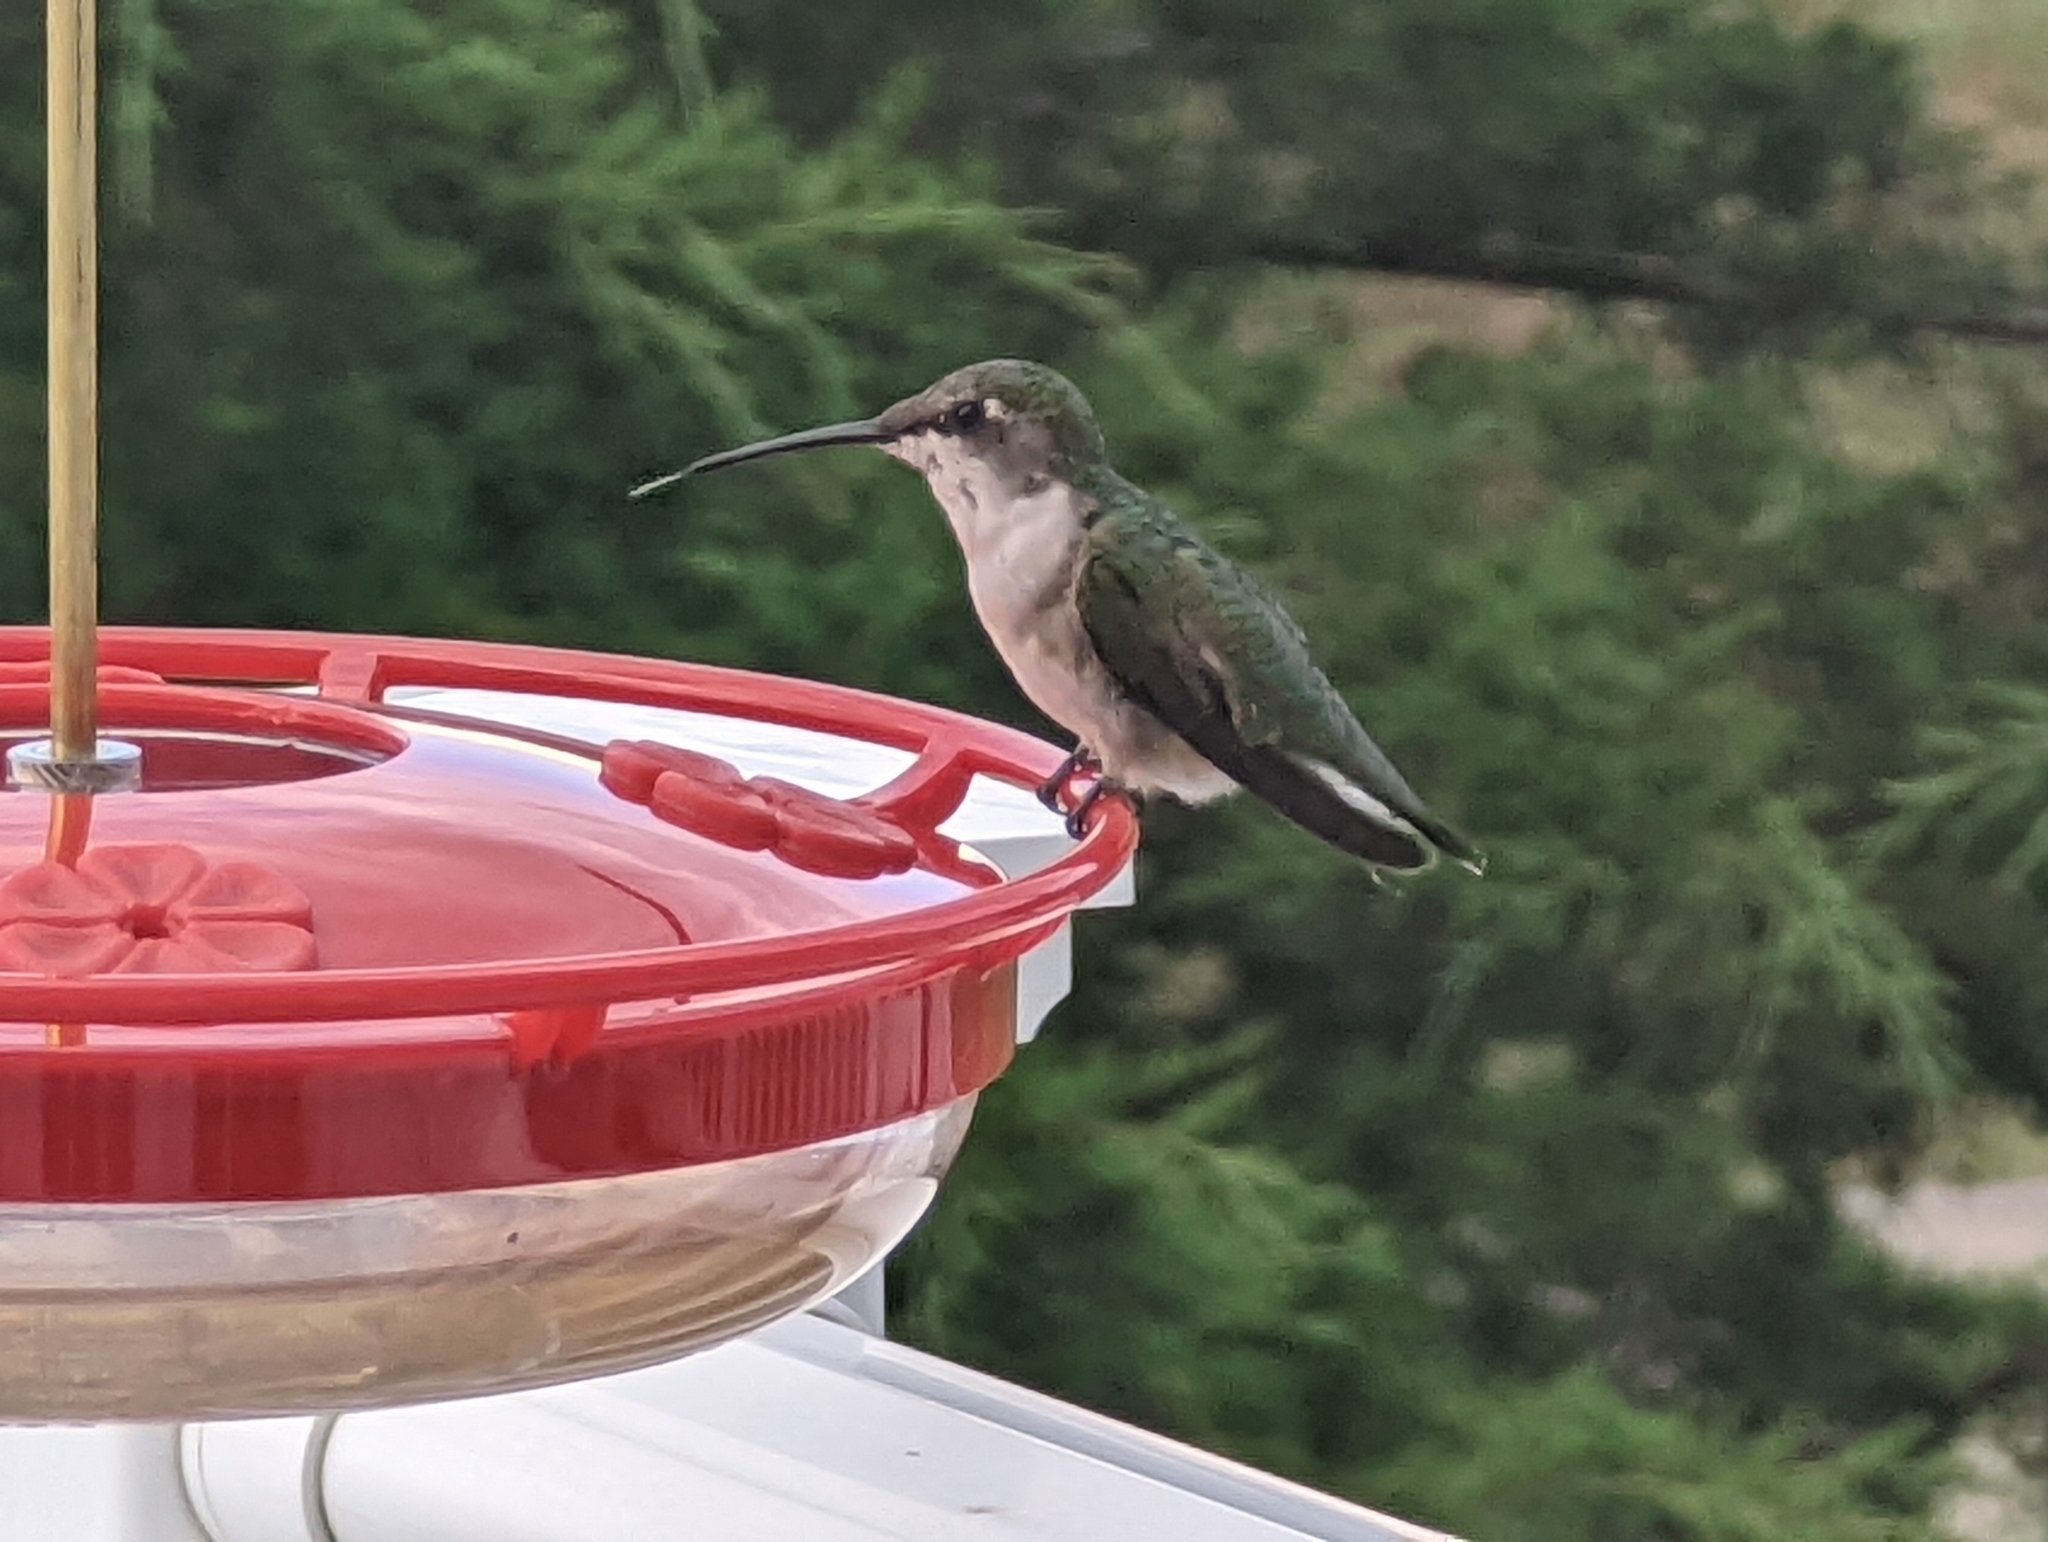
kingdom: Animalia
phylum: Chordata
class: Aves
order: Apodiformes
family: Trochilidae
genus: Archilochus
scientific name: Archilochus colubris
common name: Ruby-throated hummingbird
